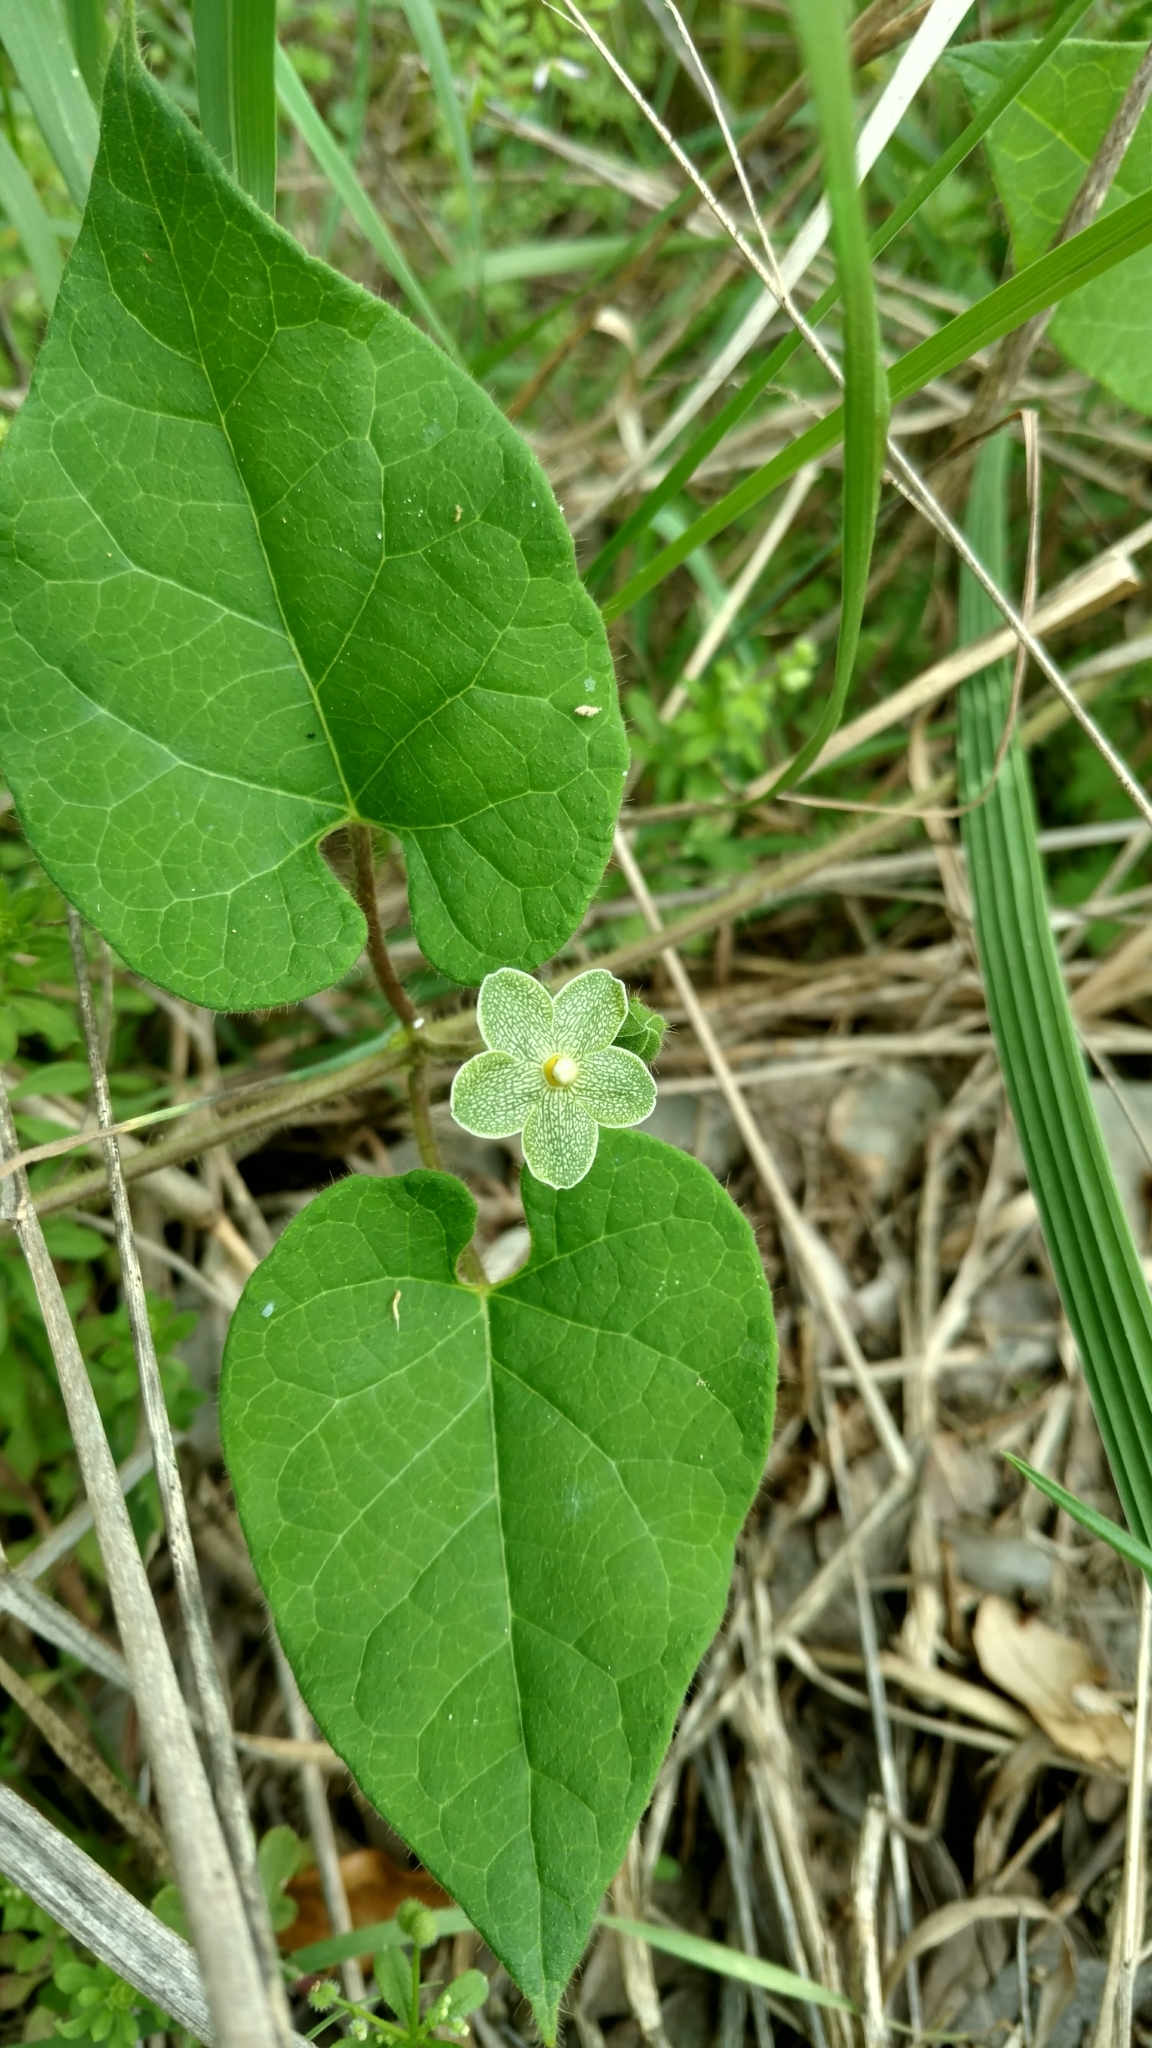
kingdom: Plantae
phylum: Tracheophyta
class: Magnoliopsida
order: Gentianales
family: Apocynaceae
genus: Dictyanthus
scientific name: Dictyanthus reticulatus
